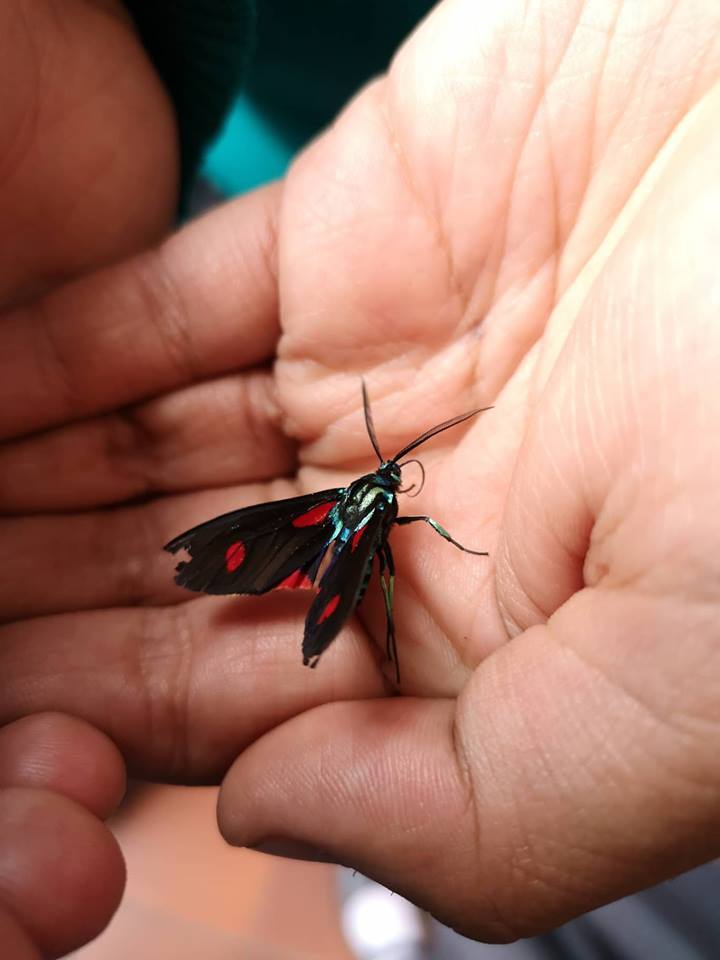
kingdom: Animalia
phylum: Arthropoda
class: Insecta
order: Lepidoptera
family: Erebidae
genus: Cyanopepla
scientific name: Cyanopepla fulgens
